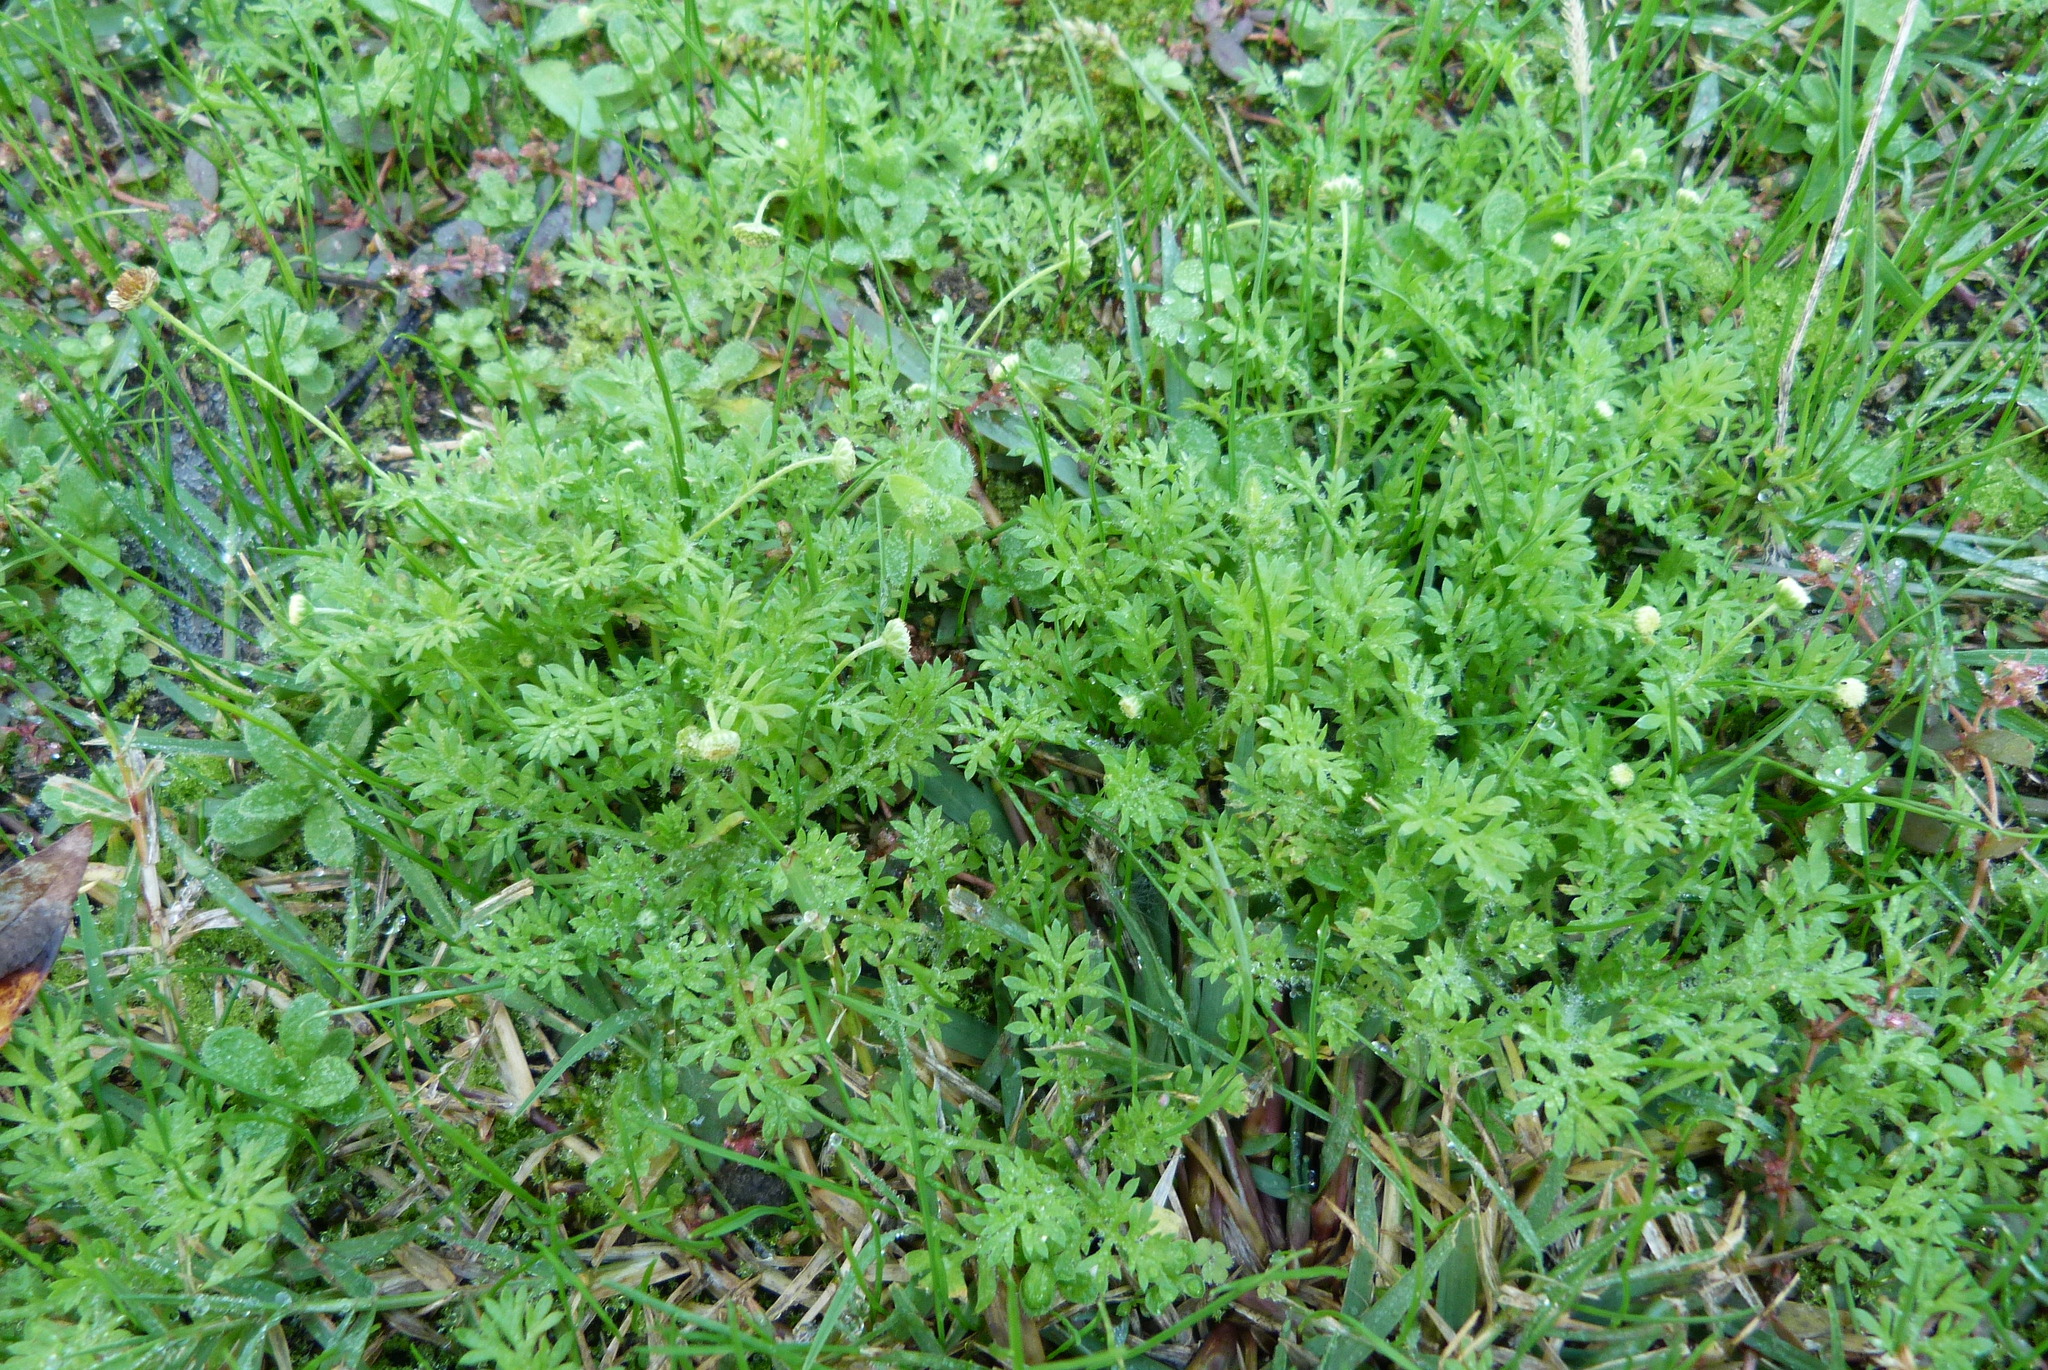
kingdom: Plantae
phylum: Tracheophyta
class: Magnoliopsida
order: Asterales
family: Asteraceae
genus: Cotula
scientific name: Cotula australis
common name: Australian waterbuttons
